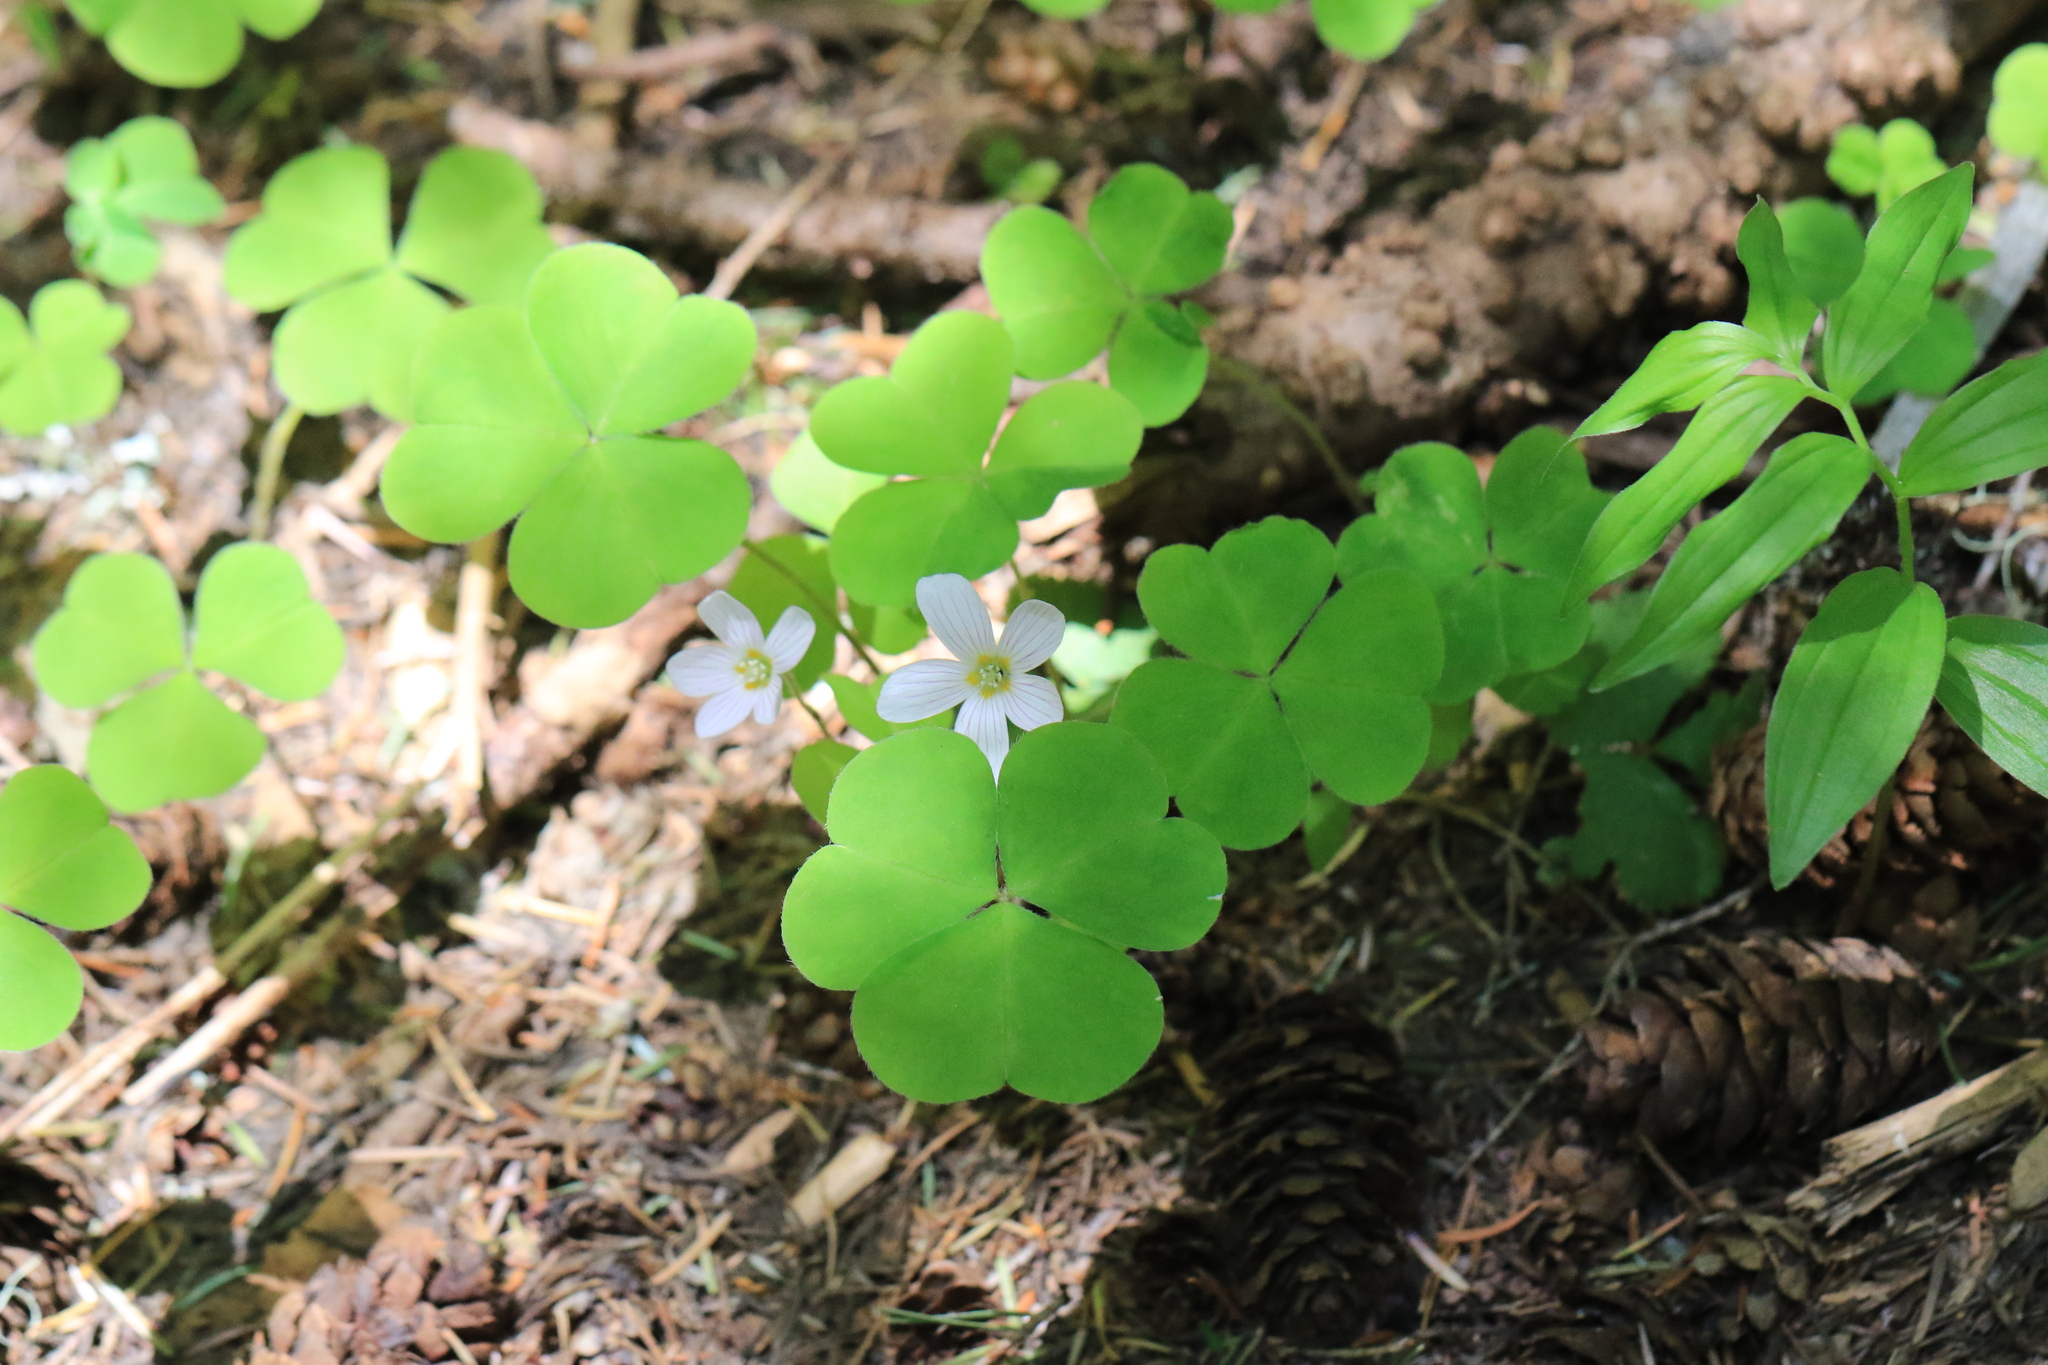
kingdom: Plantae
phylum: Tracheophyta
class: Magnoliopsida
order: Oxalidales
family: Oxalidaceae
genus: Oxalis
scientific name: Oxalis oregana
